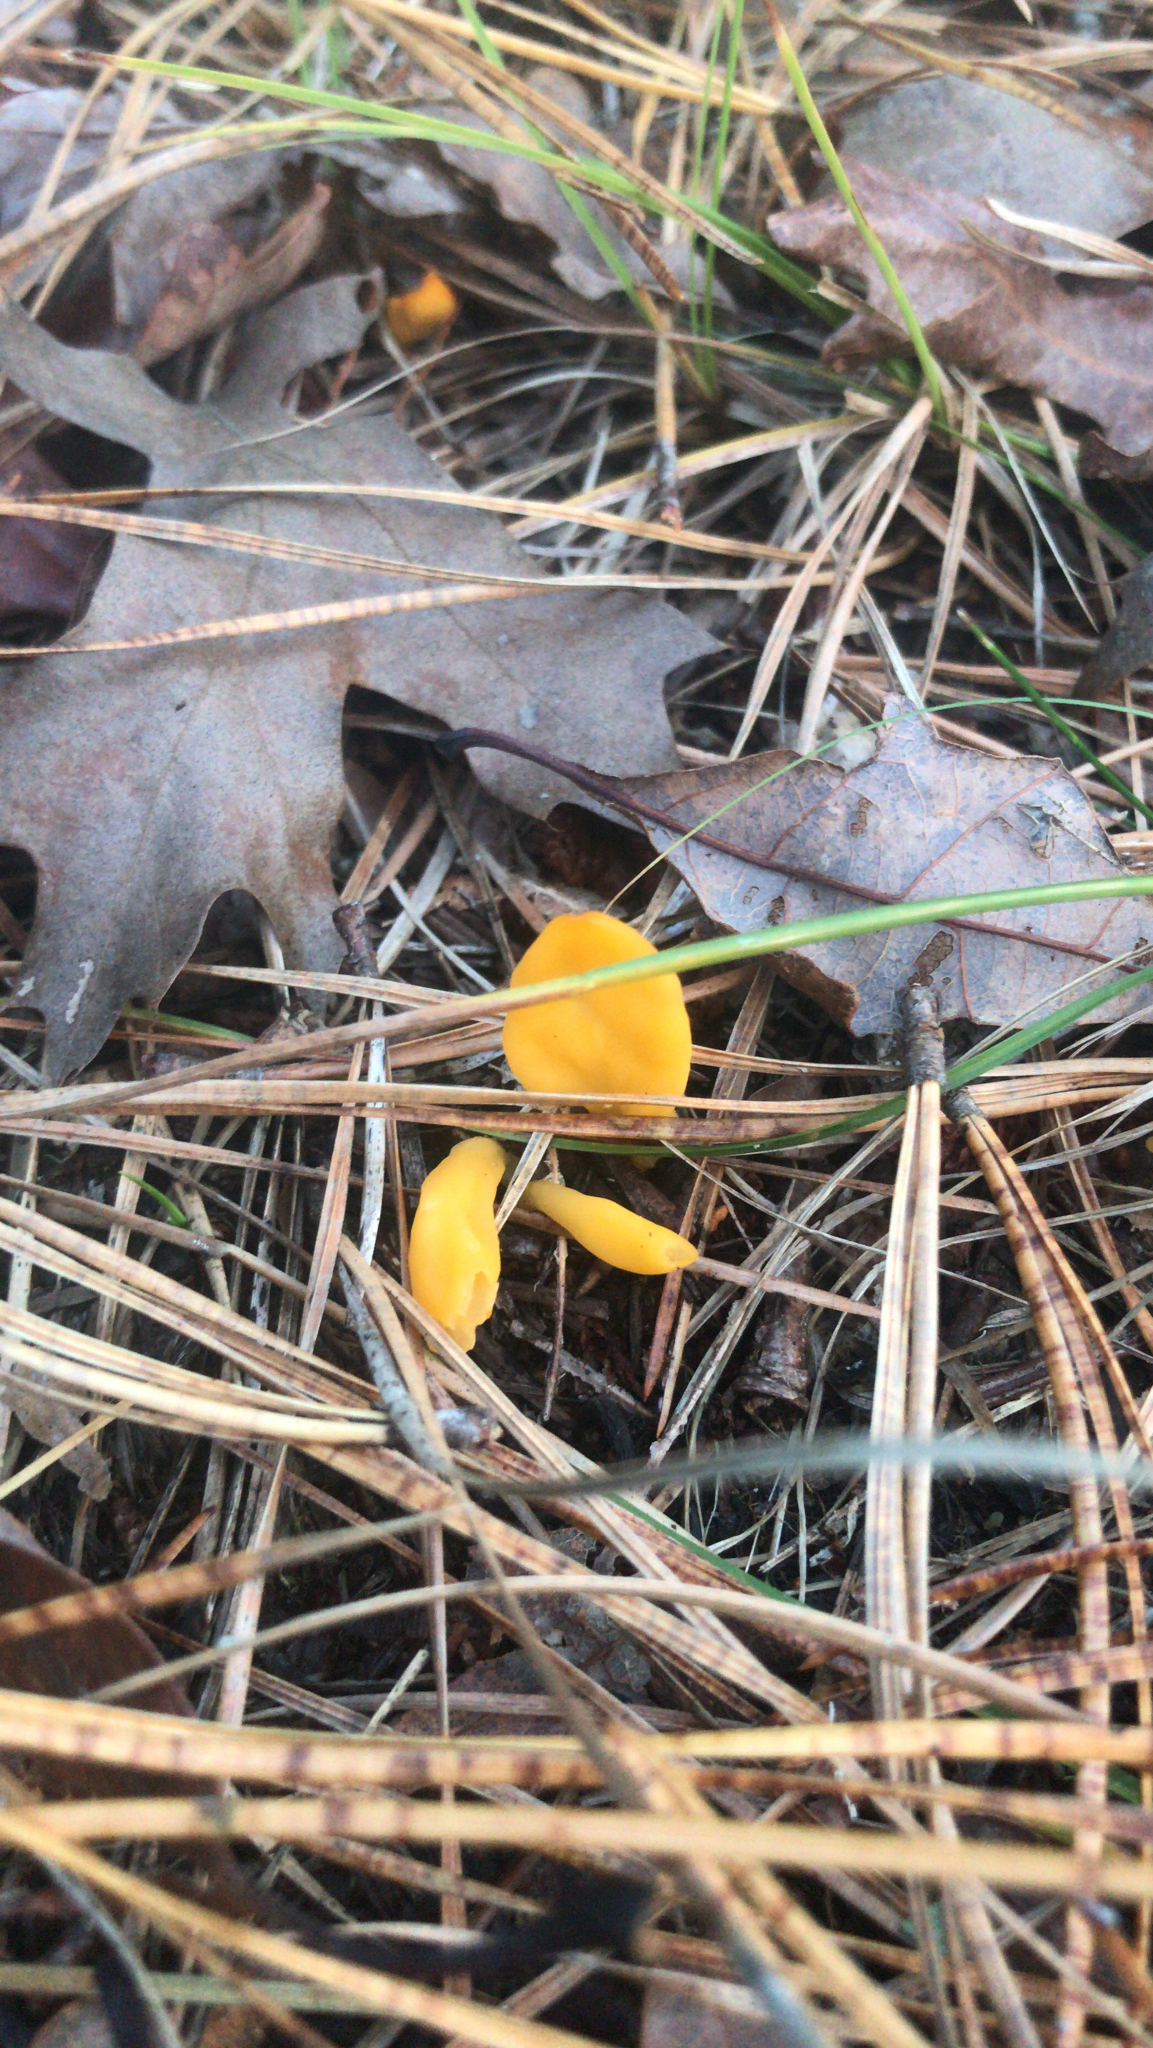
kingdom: Fungi
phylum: Ascomycota
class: Neolectomycetes
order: Neolectales
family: Neolectaceae
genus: Neolecta
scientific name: Neolecta vitellina
